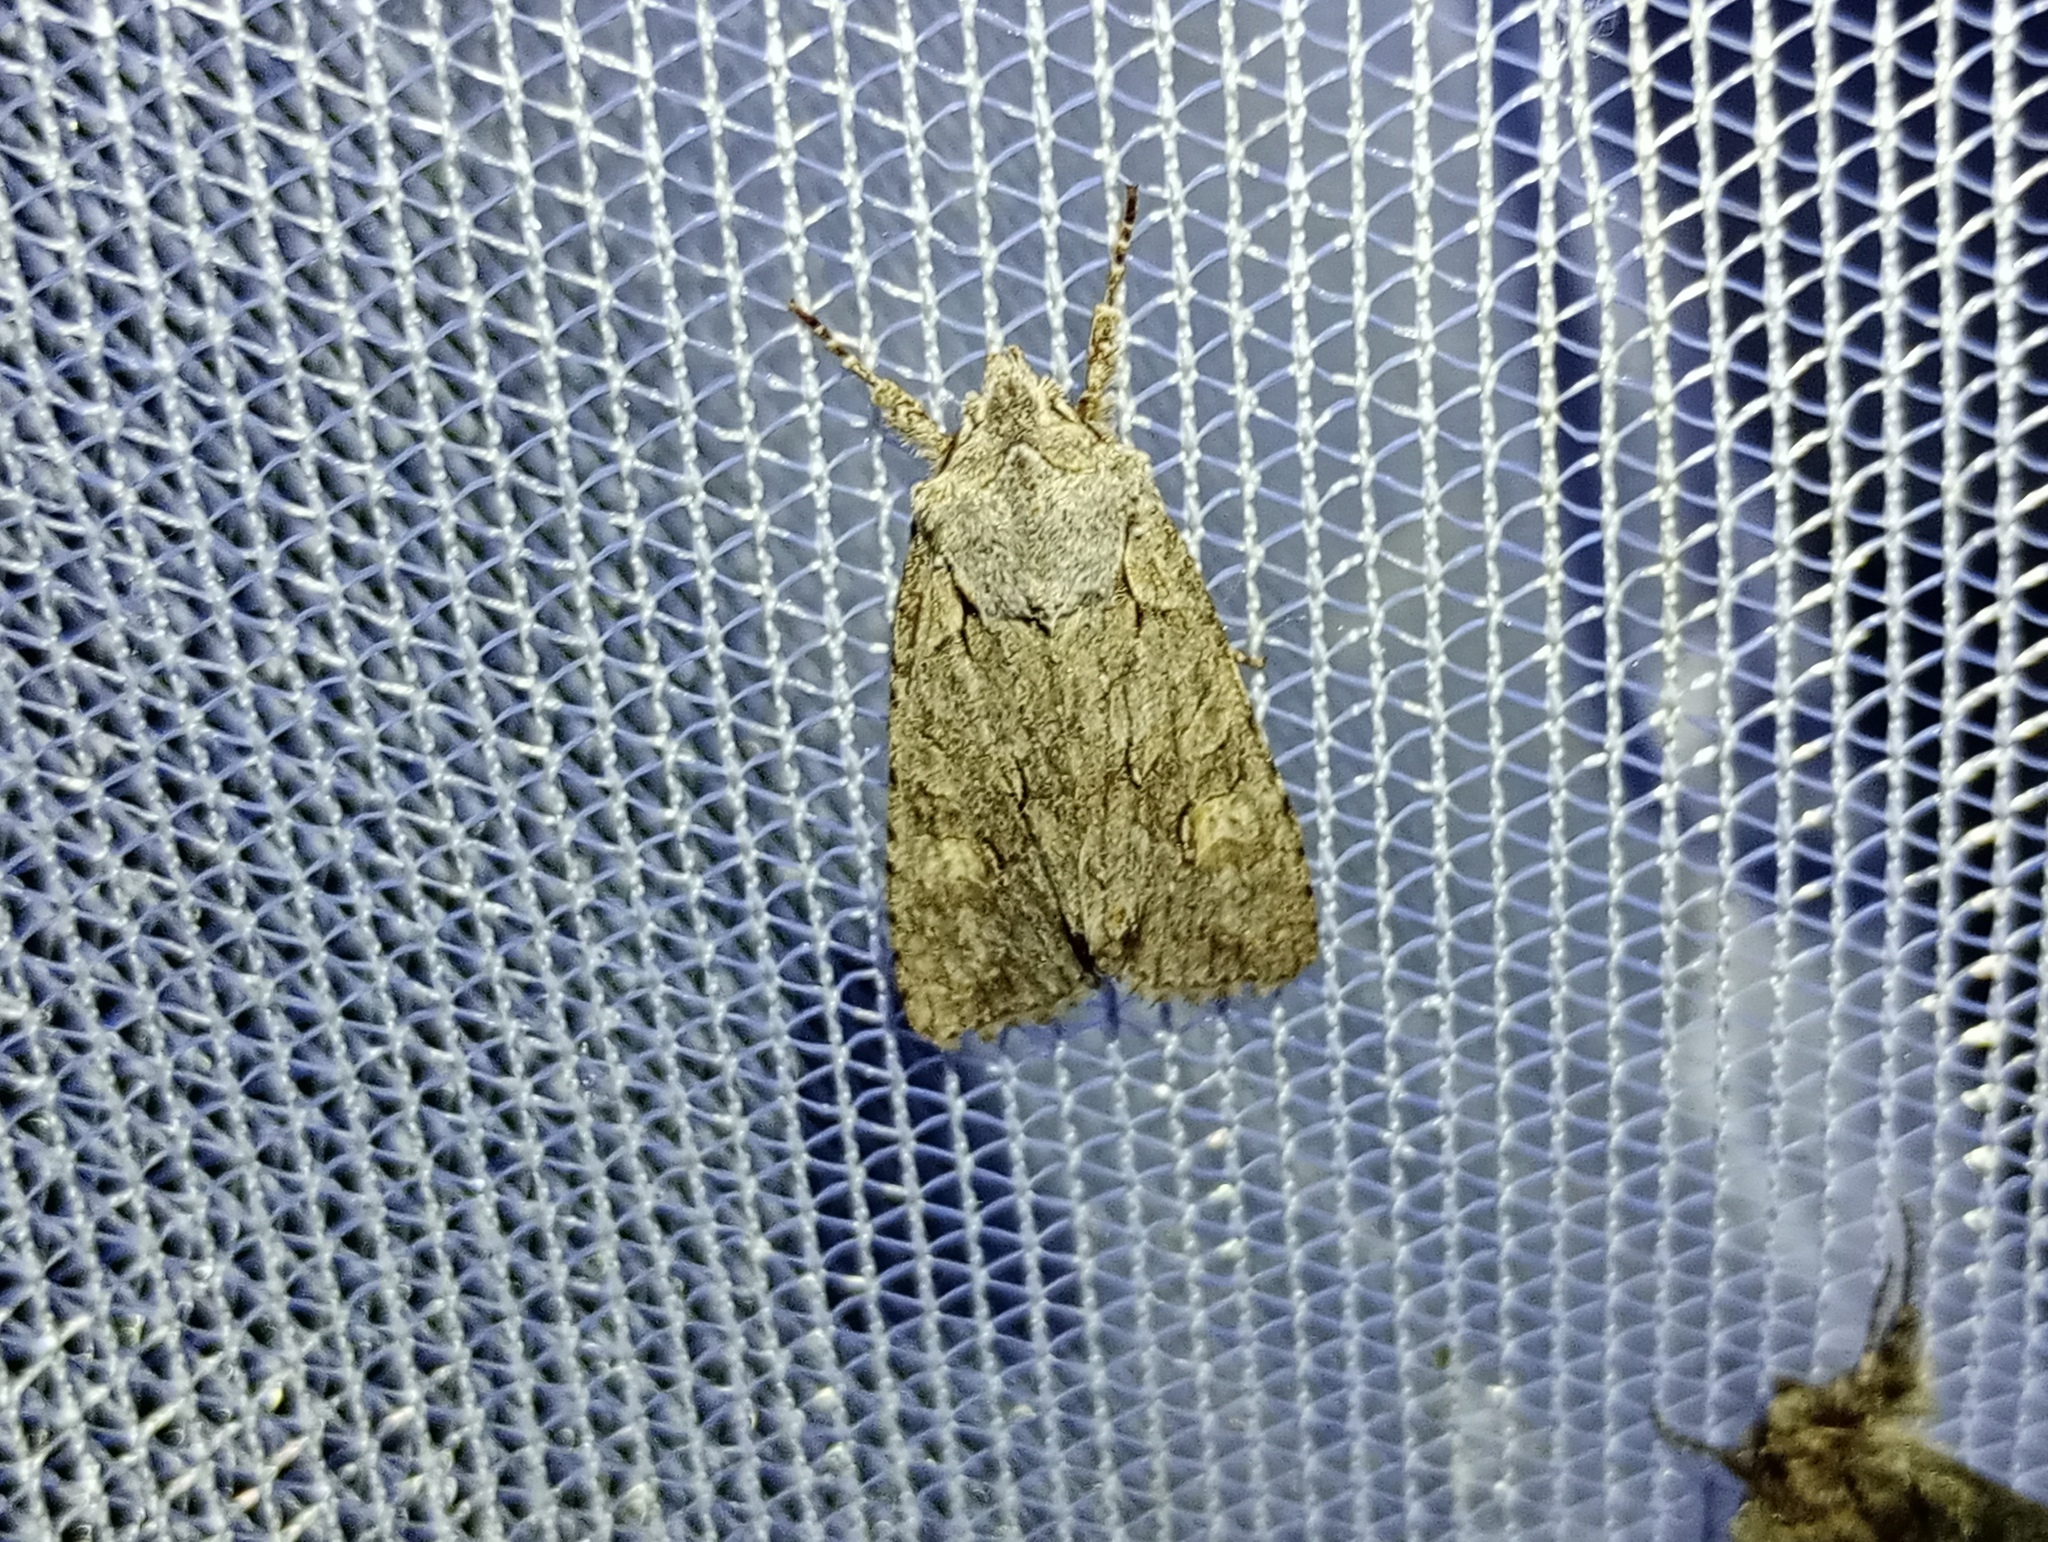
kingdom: Animalia
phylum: Arthropoda
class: Insecta
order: Lepidoptera
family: Noctuidae
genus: Lithophane
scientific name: Lithophane ornitopus
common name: Grey shoulder-knot
